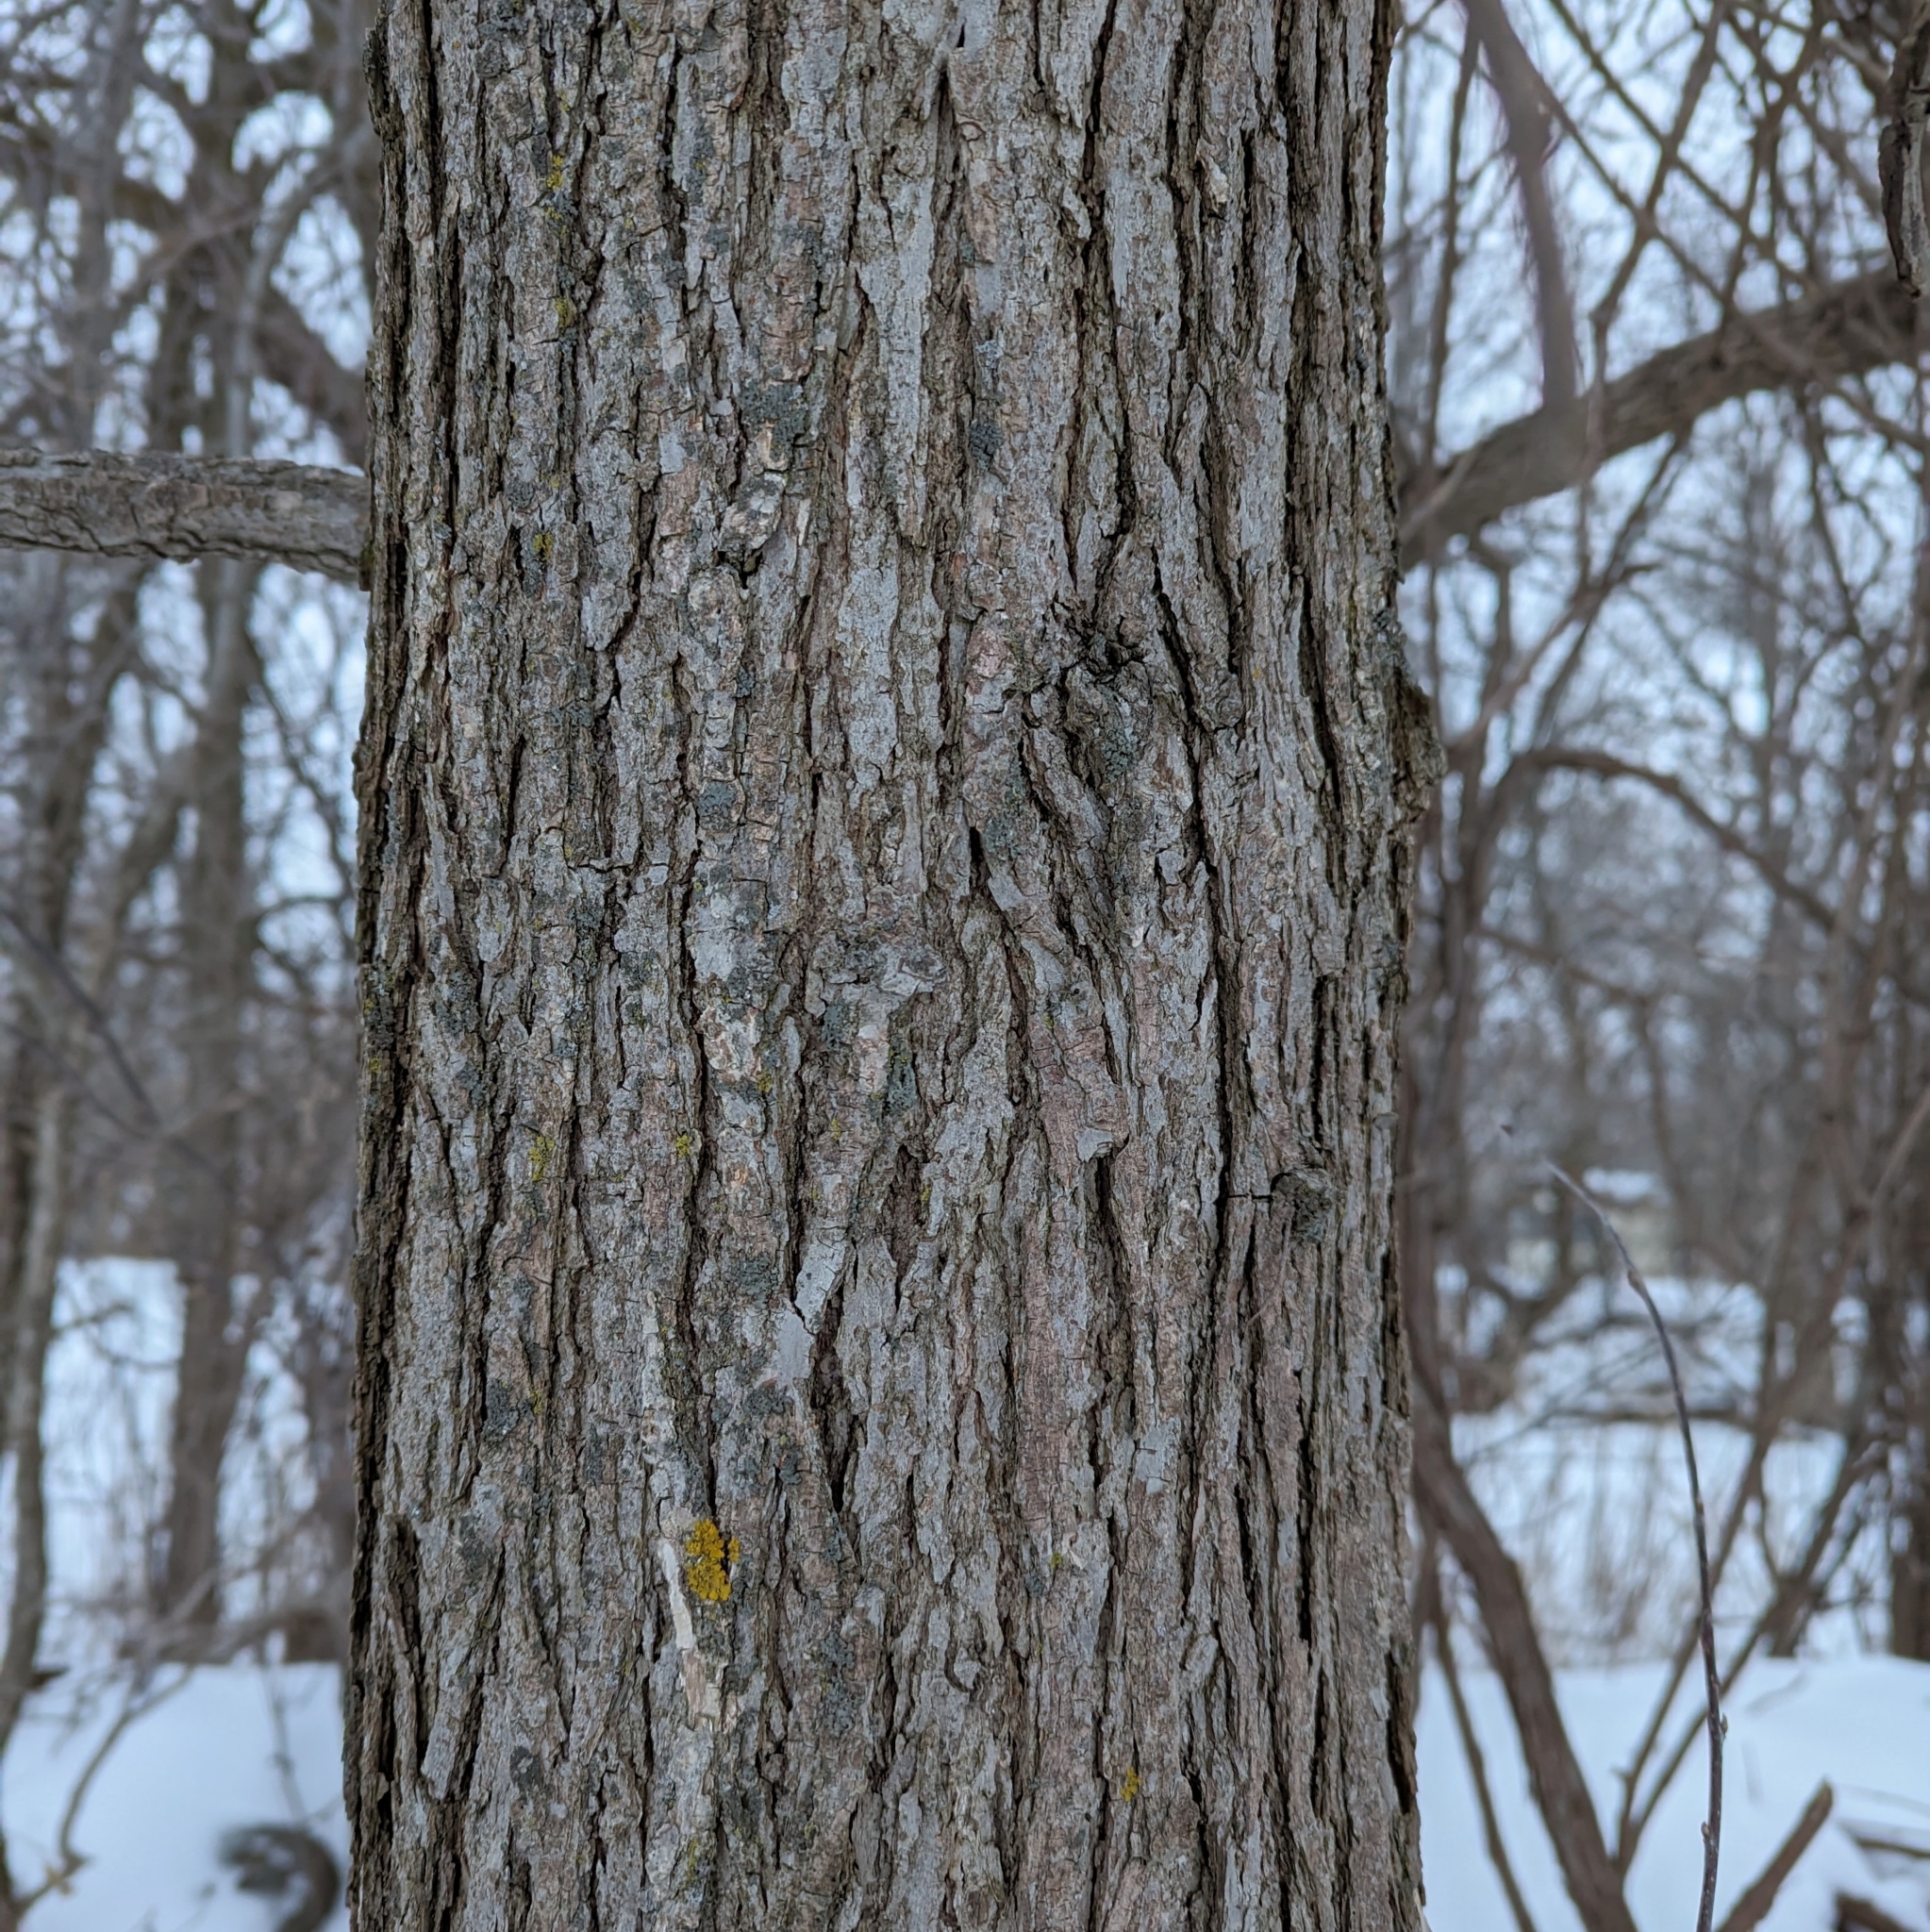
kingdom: Plantae
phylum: Tracheophyta
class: Magnoliopsida
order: Fagales
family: Fagaceae
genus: Quercus
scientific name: Quercus macrocarpa
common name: Bur oak
